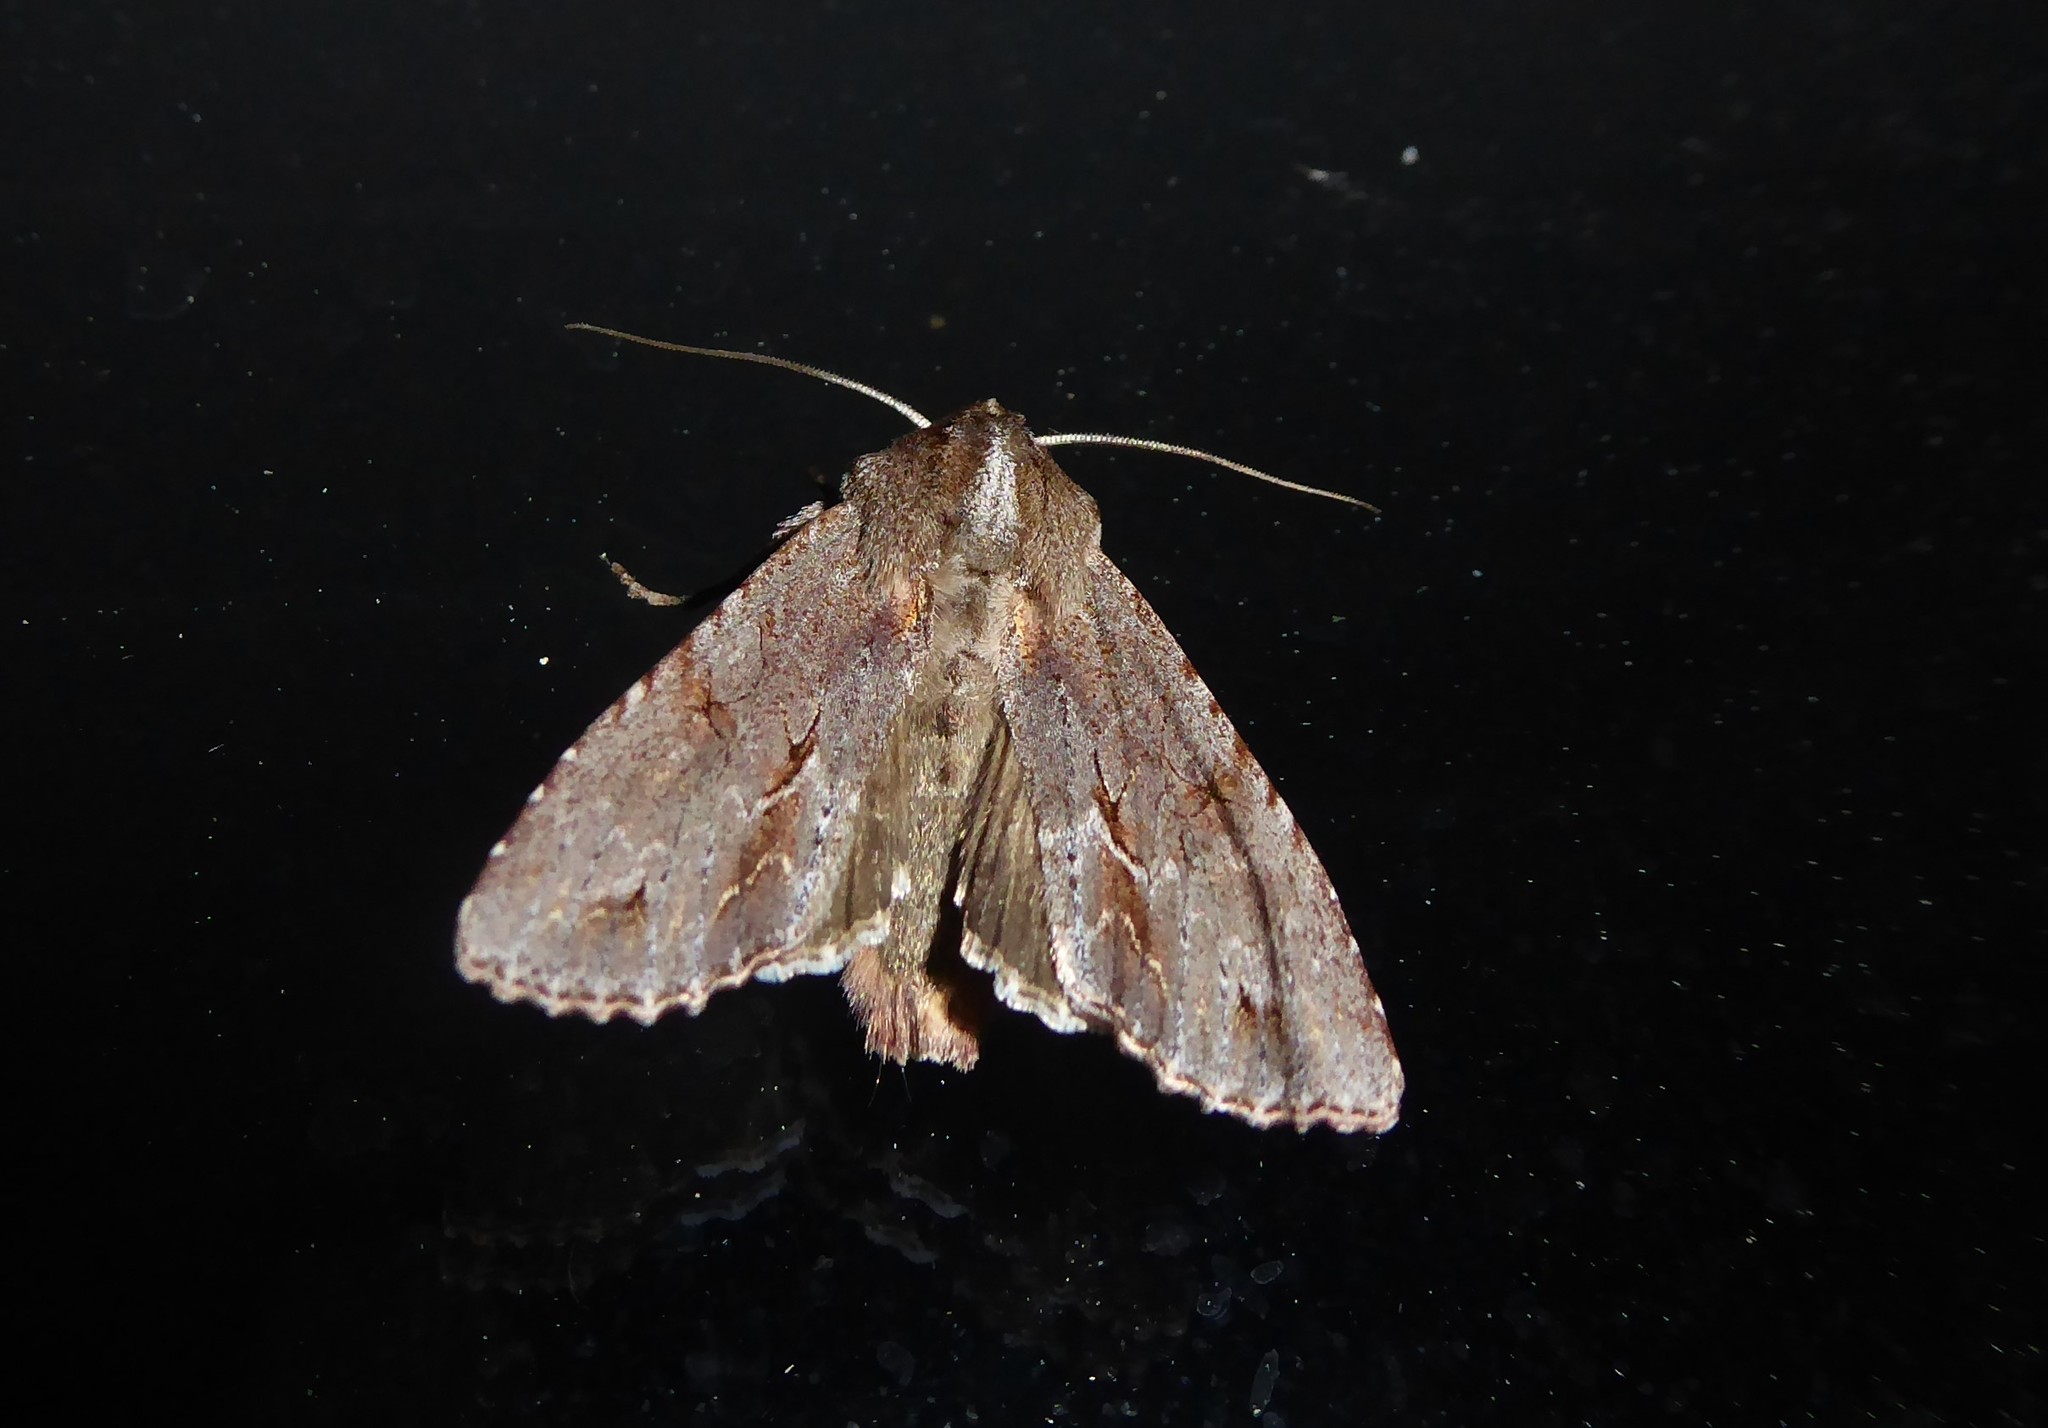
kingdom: Animalia
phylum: Arthropoda
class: Insecta
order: Lepidoptera
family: Noctuidae
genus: Ichneutica
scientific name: Ichneutica
